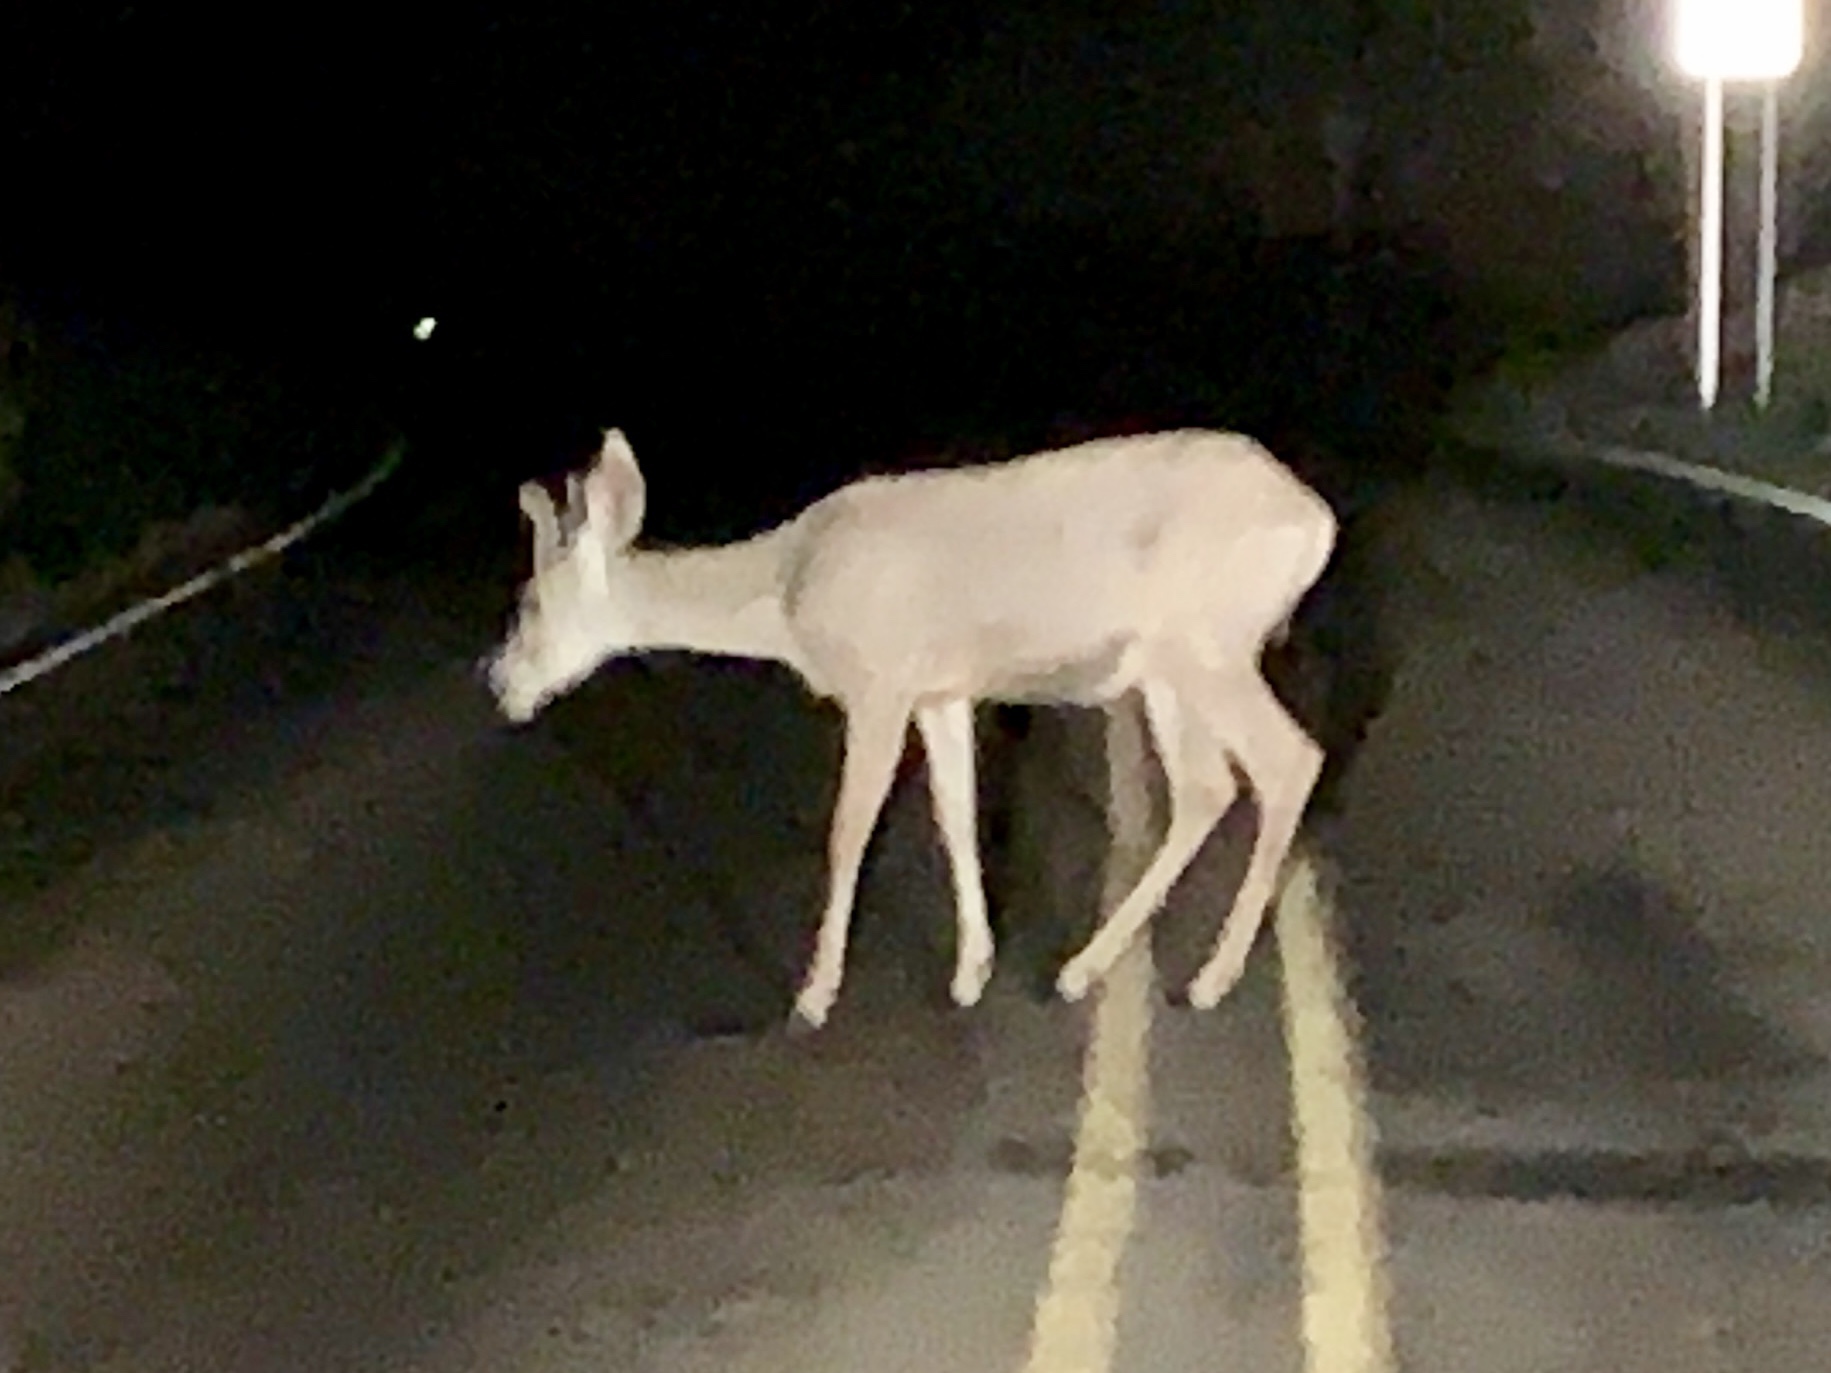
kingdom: Animalia
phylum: Chordata
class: Mammalia
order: Artiodactyla
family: Cervidae
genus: Odocoileus
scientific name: Odocoileus hemionus
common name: Mule deer
